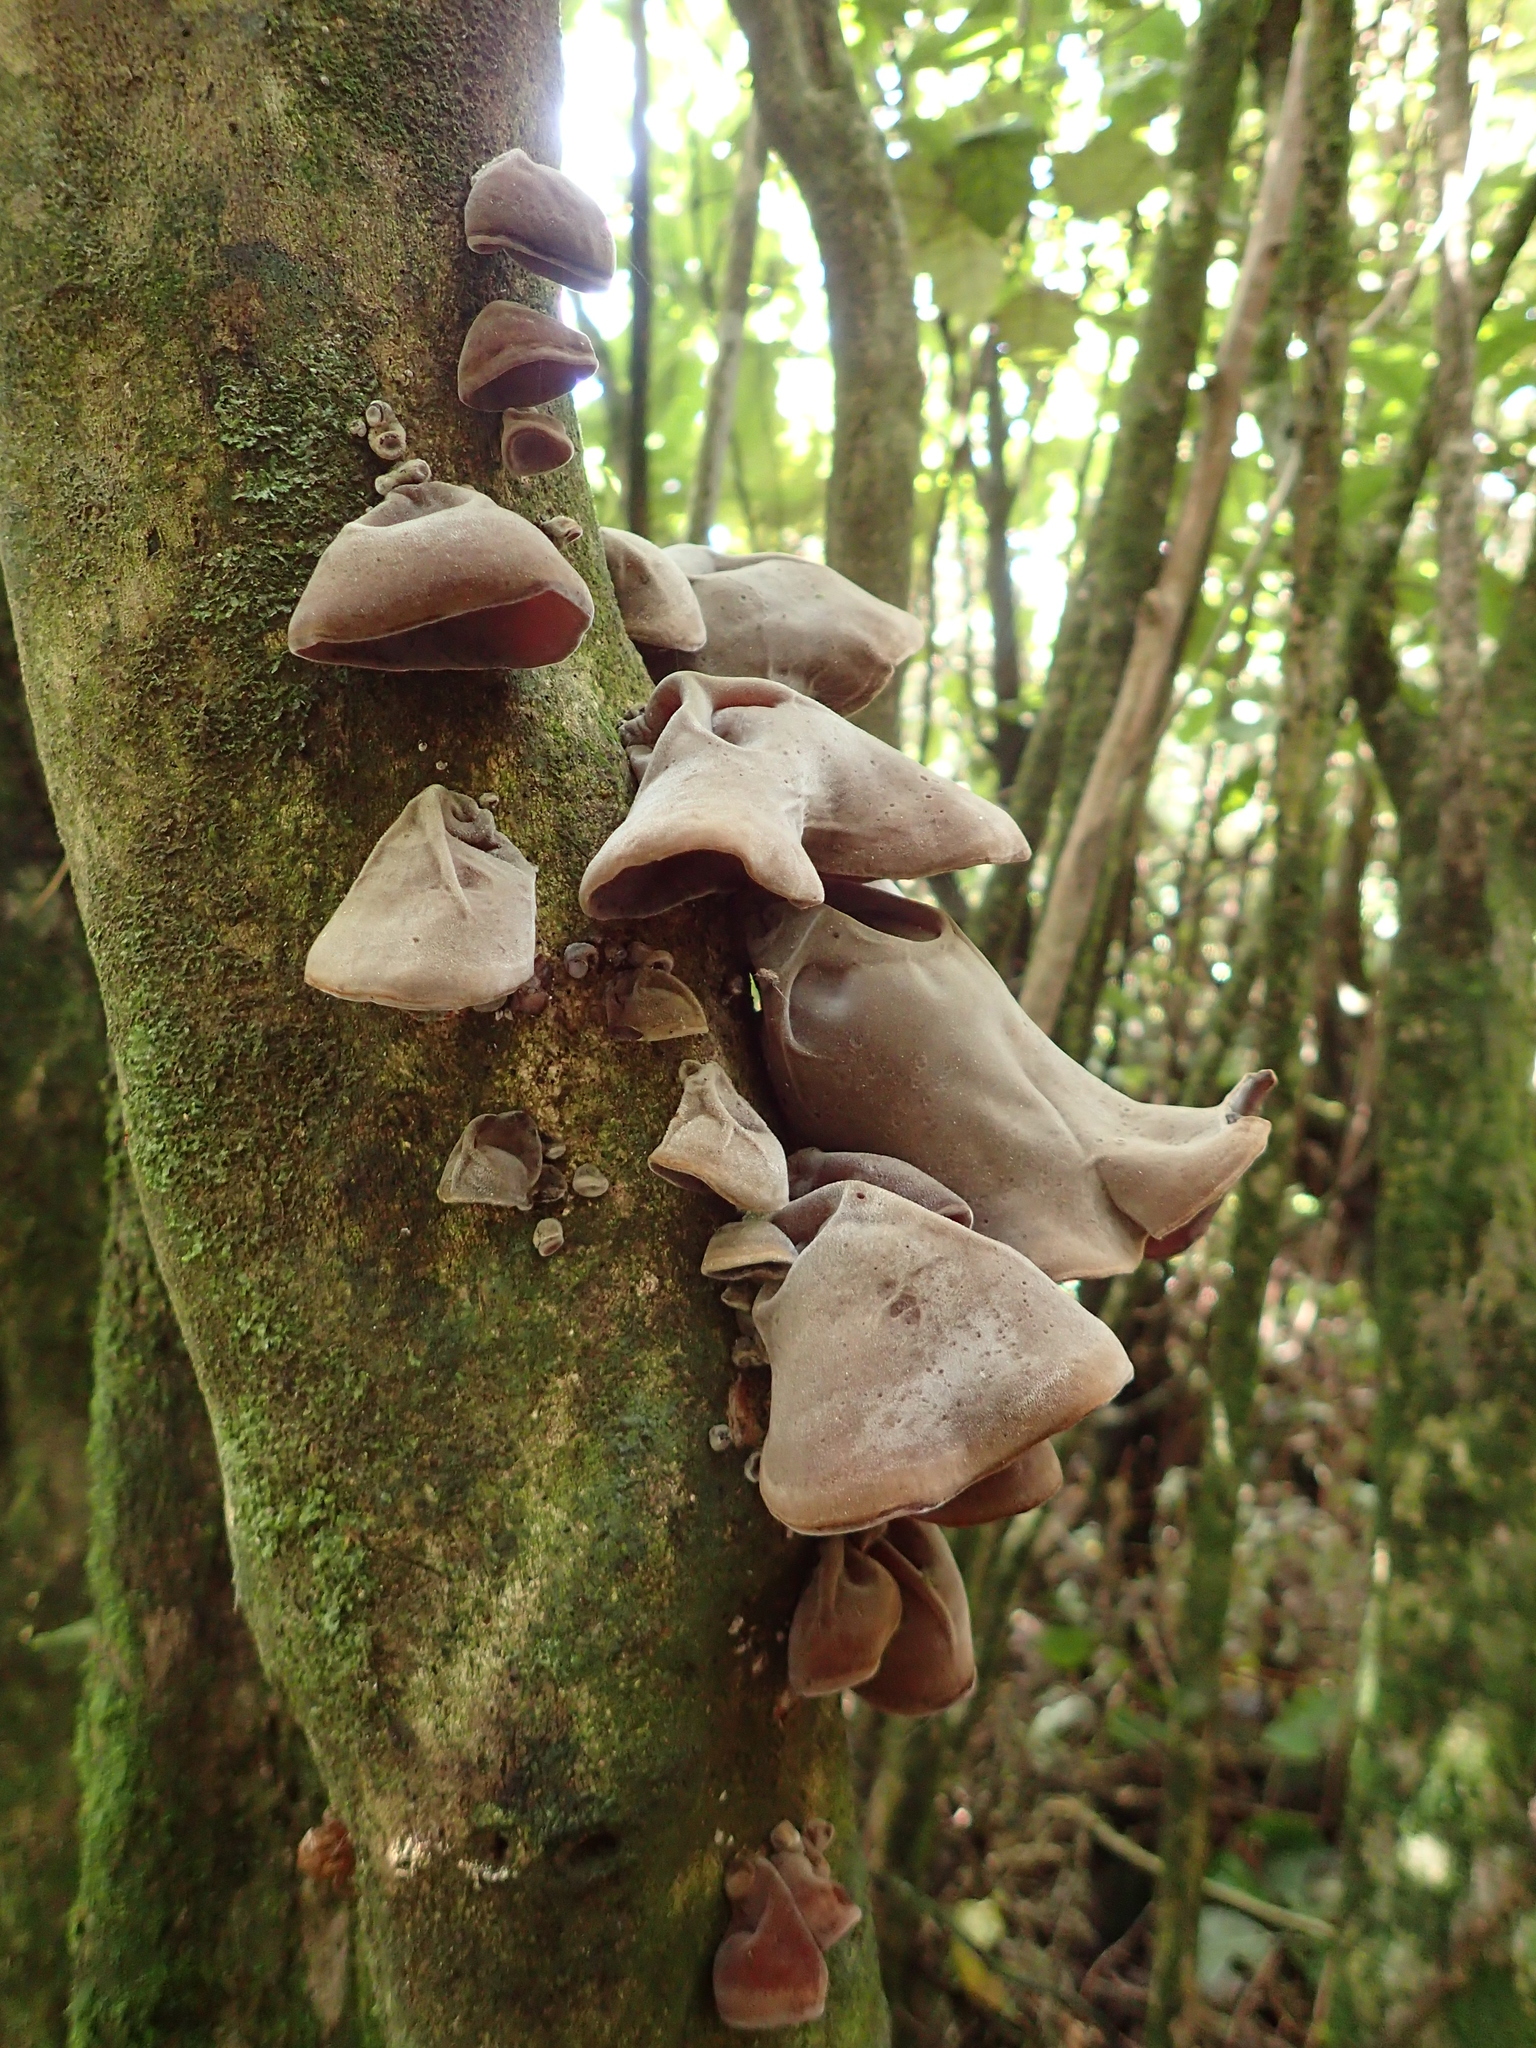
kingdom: Fungi
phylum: Basidiomycota
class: Agaricomycetes
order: Auriculariales
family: Auriculariaceae
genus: Auricularia
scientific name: Auricularia cornea
